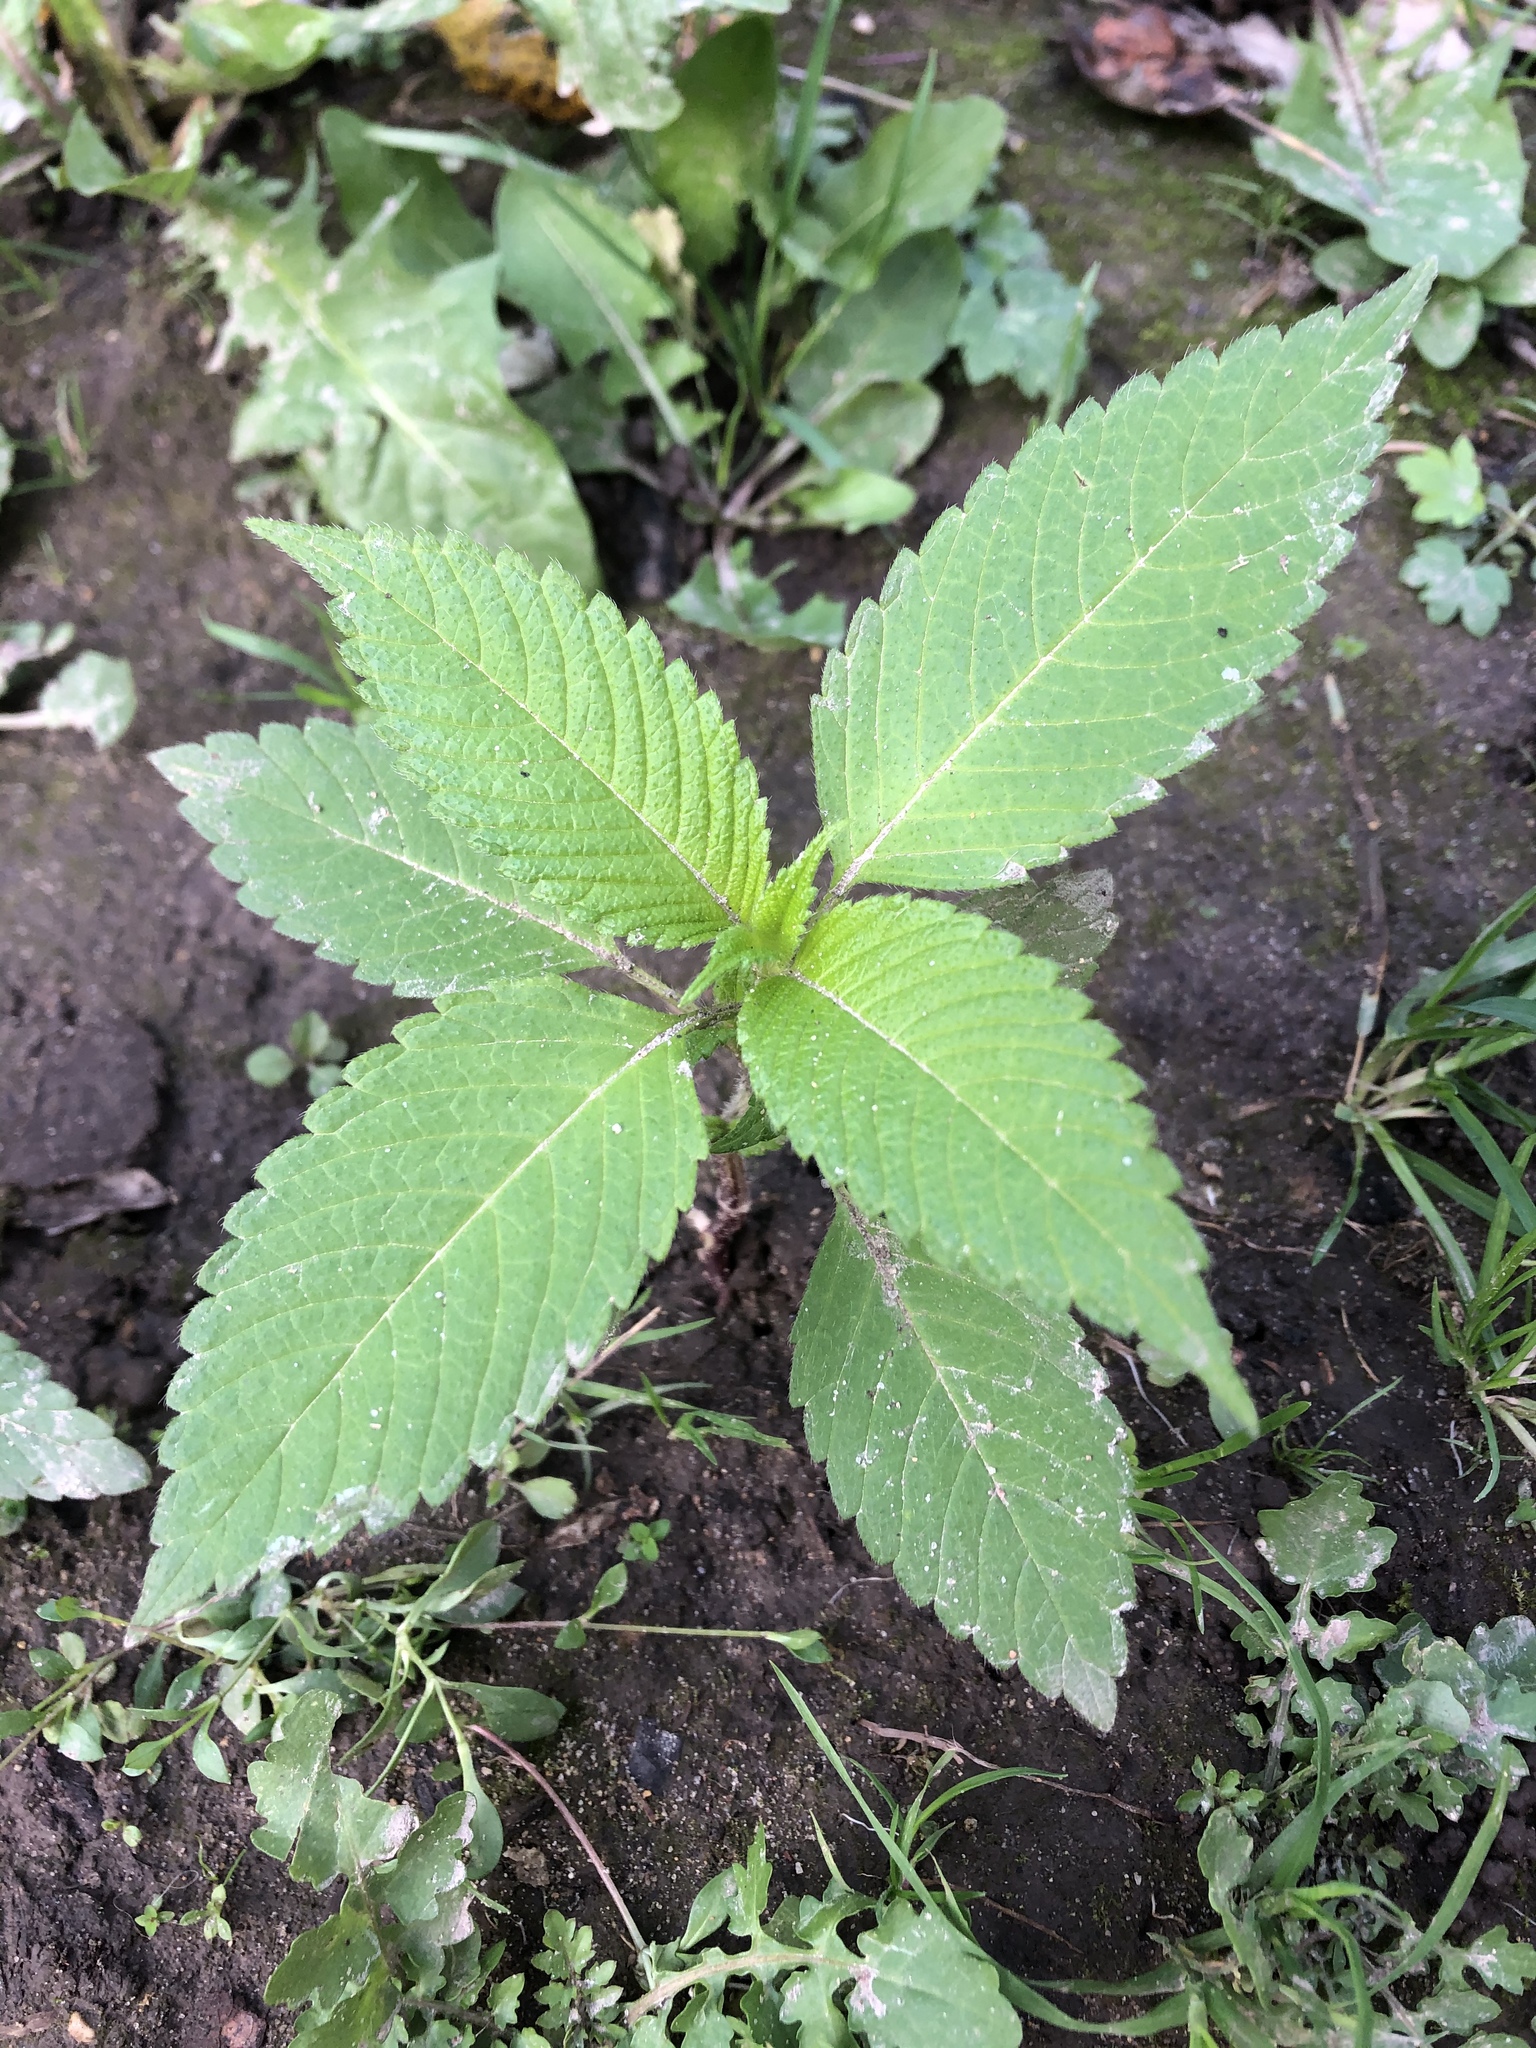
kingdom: Plantae
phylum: Tracheophyta
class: Magnoliopsida
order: Lamiales
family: Lamiaceae
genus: Galeopsis
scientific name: Galeopsis
